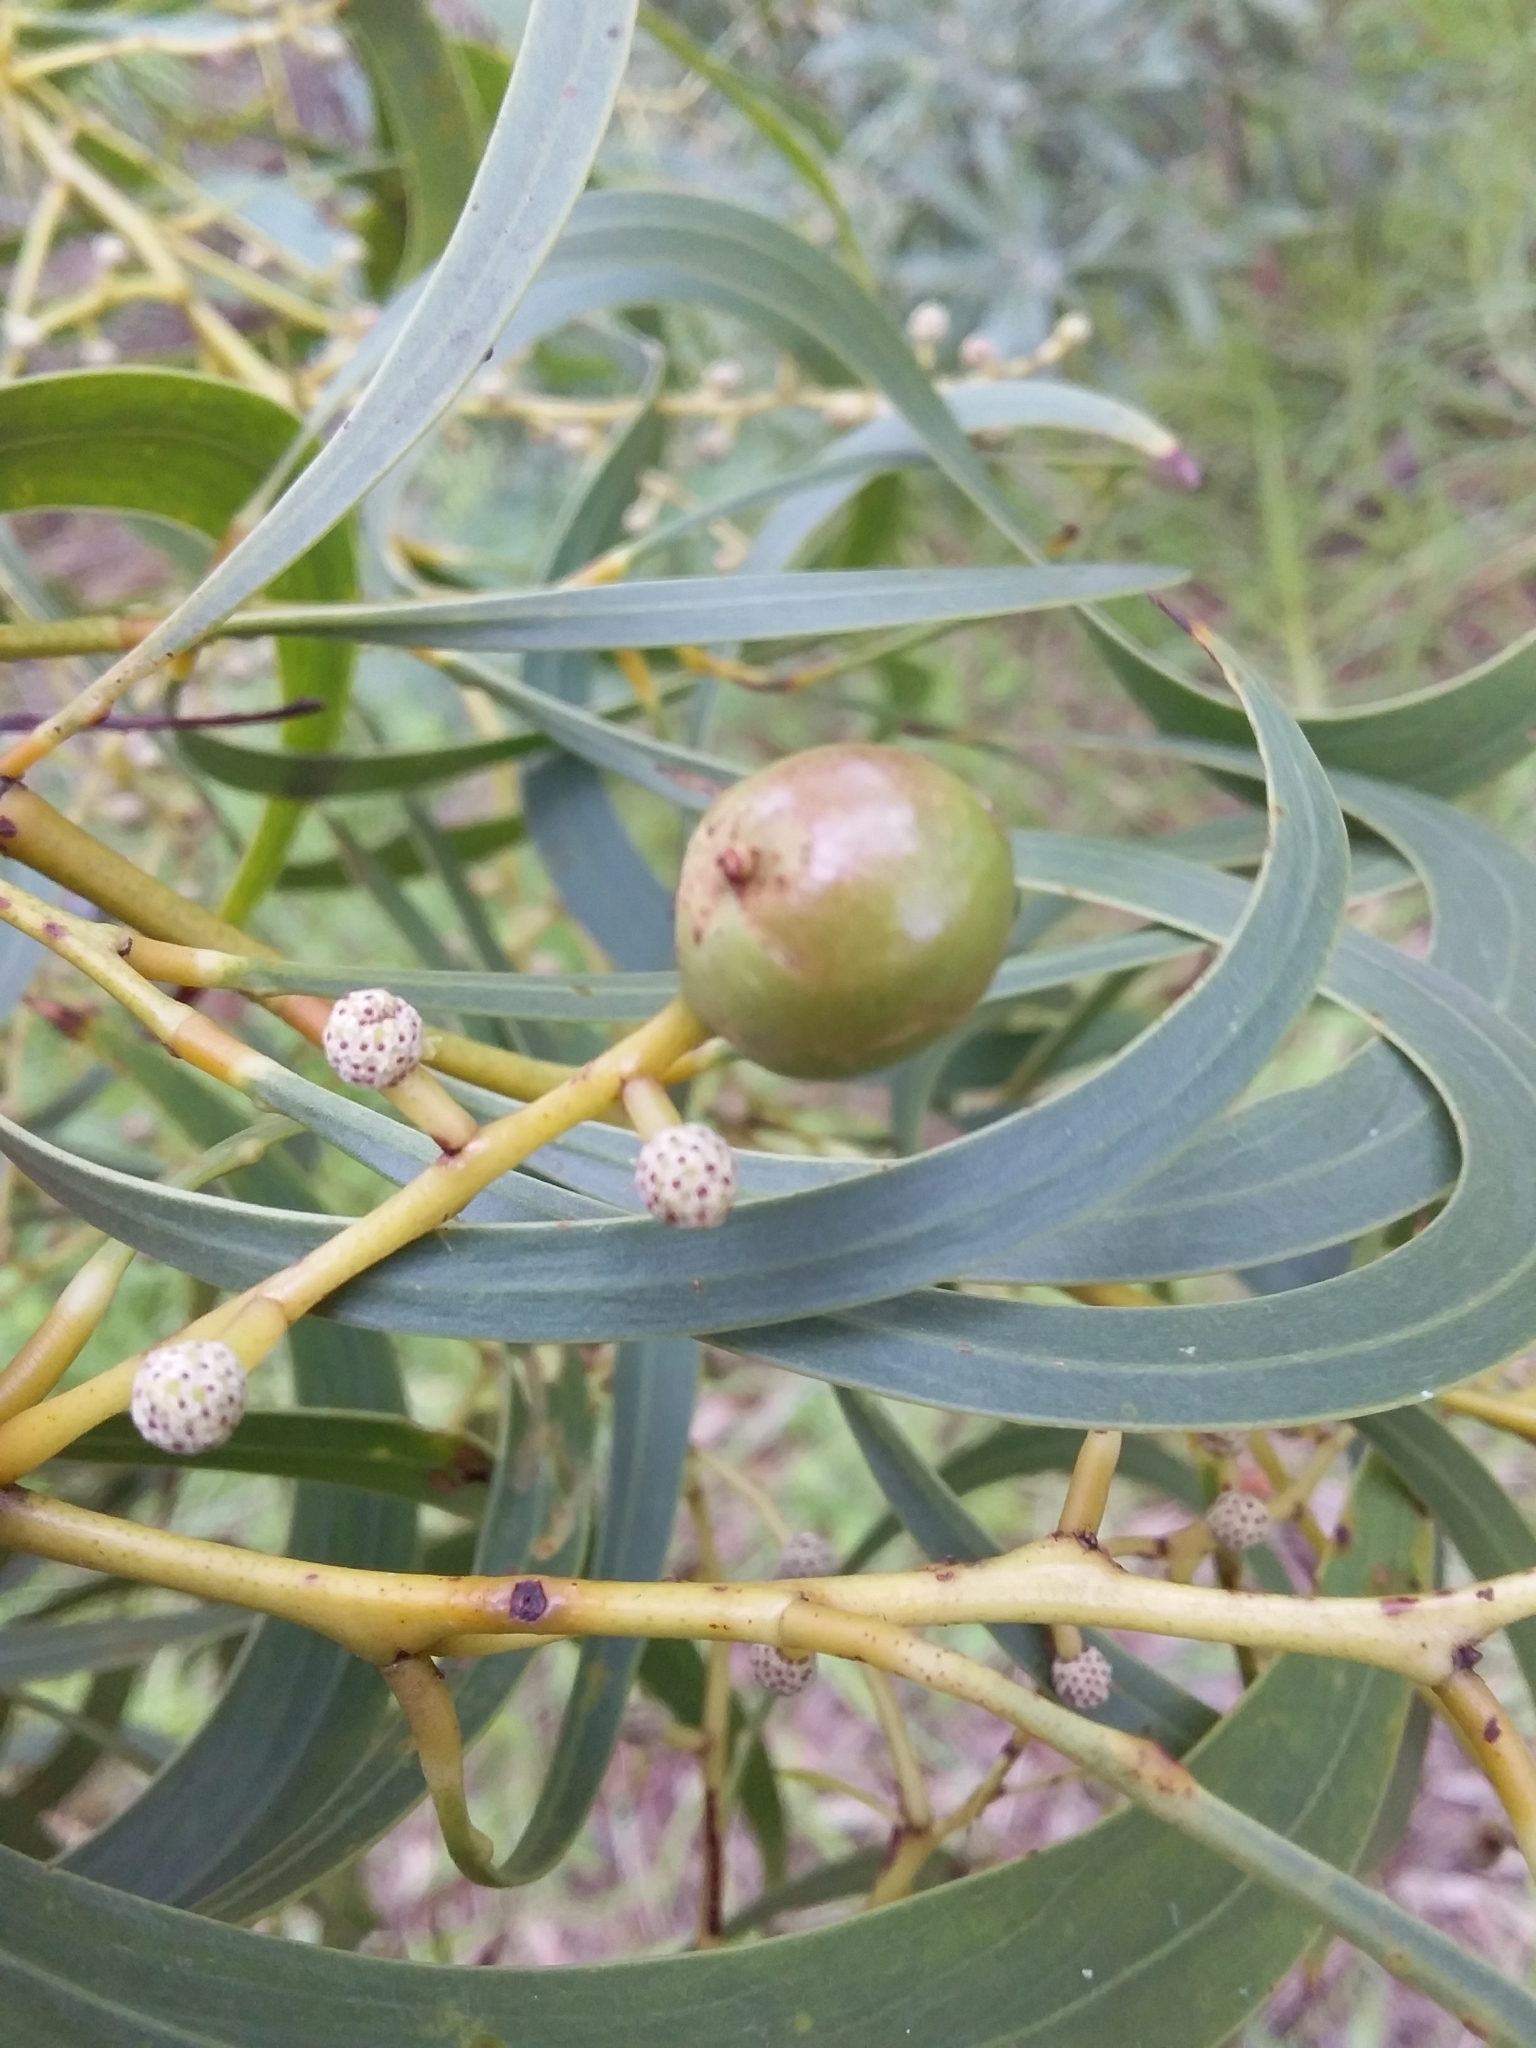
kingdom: Animalia
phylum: Arthropoda
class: Insecta
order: Hymenoptera
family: Pteromalidae
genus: Trichilogaster
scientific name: Trichilogaster signiventris
